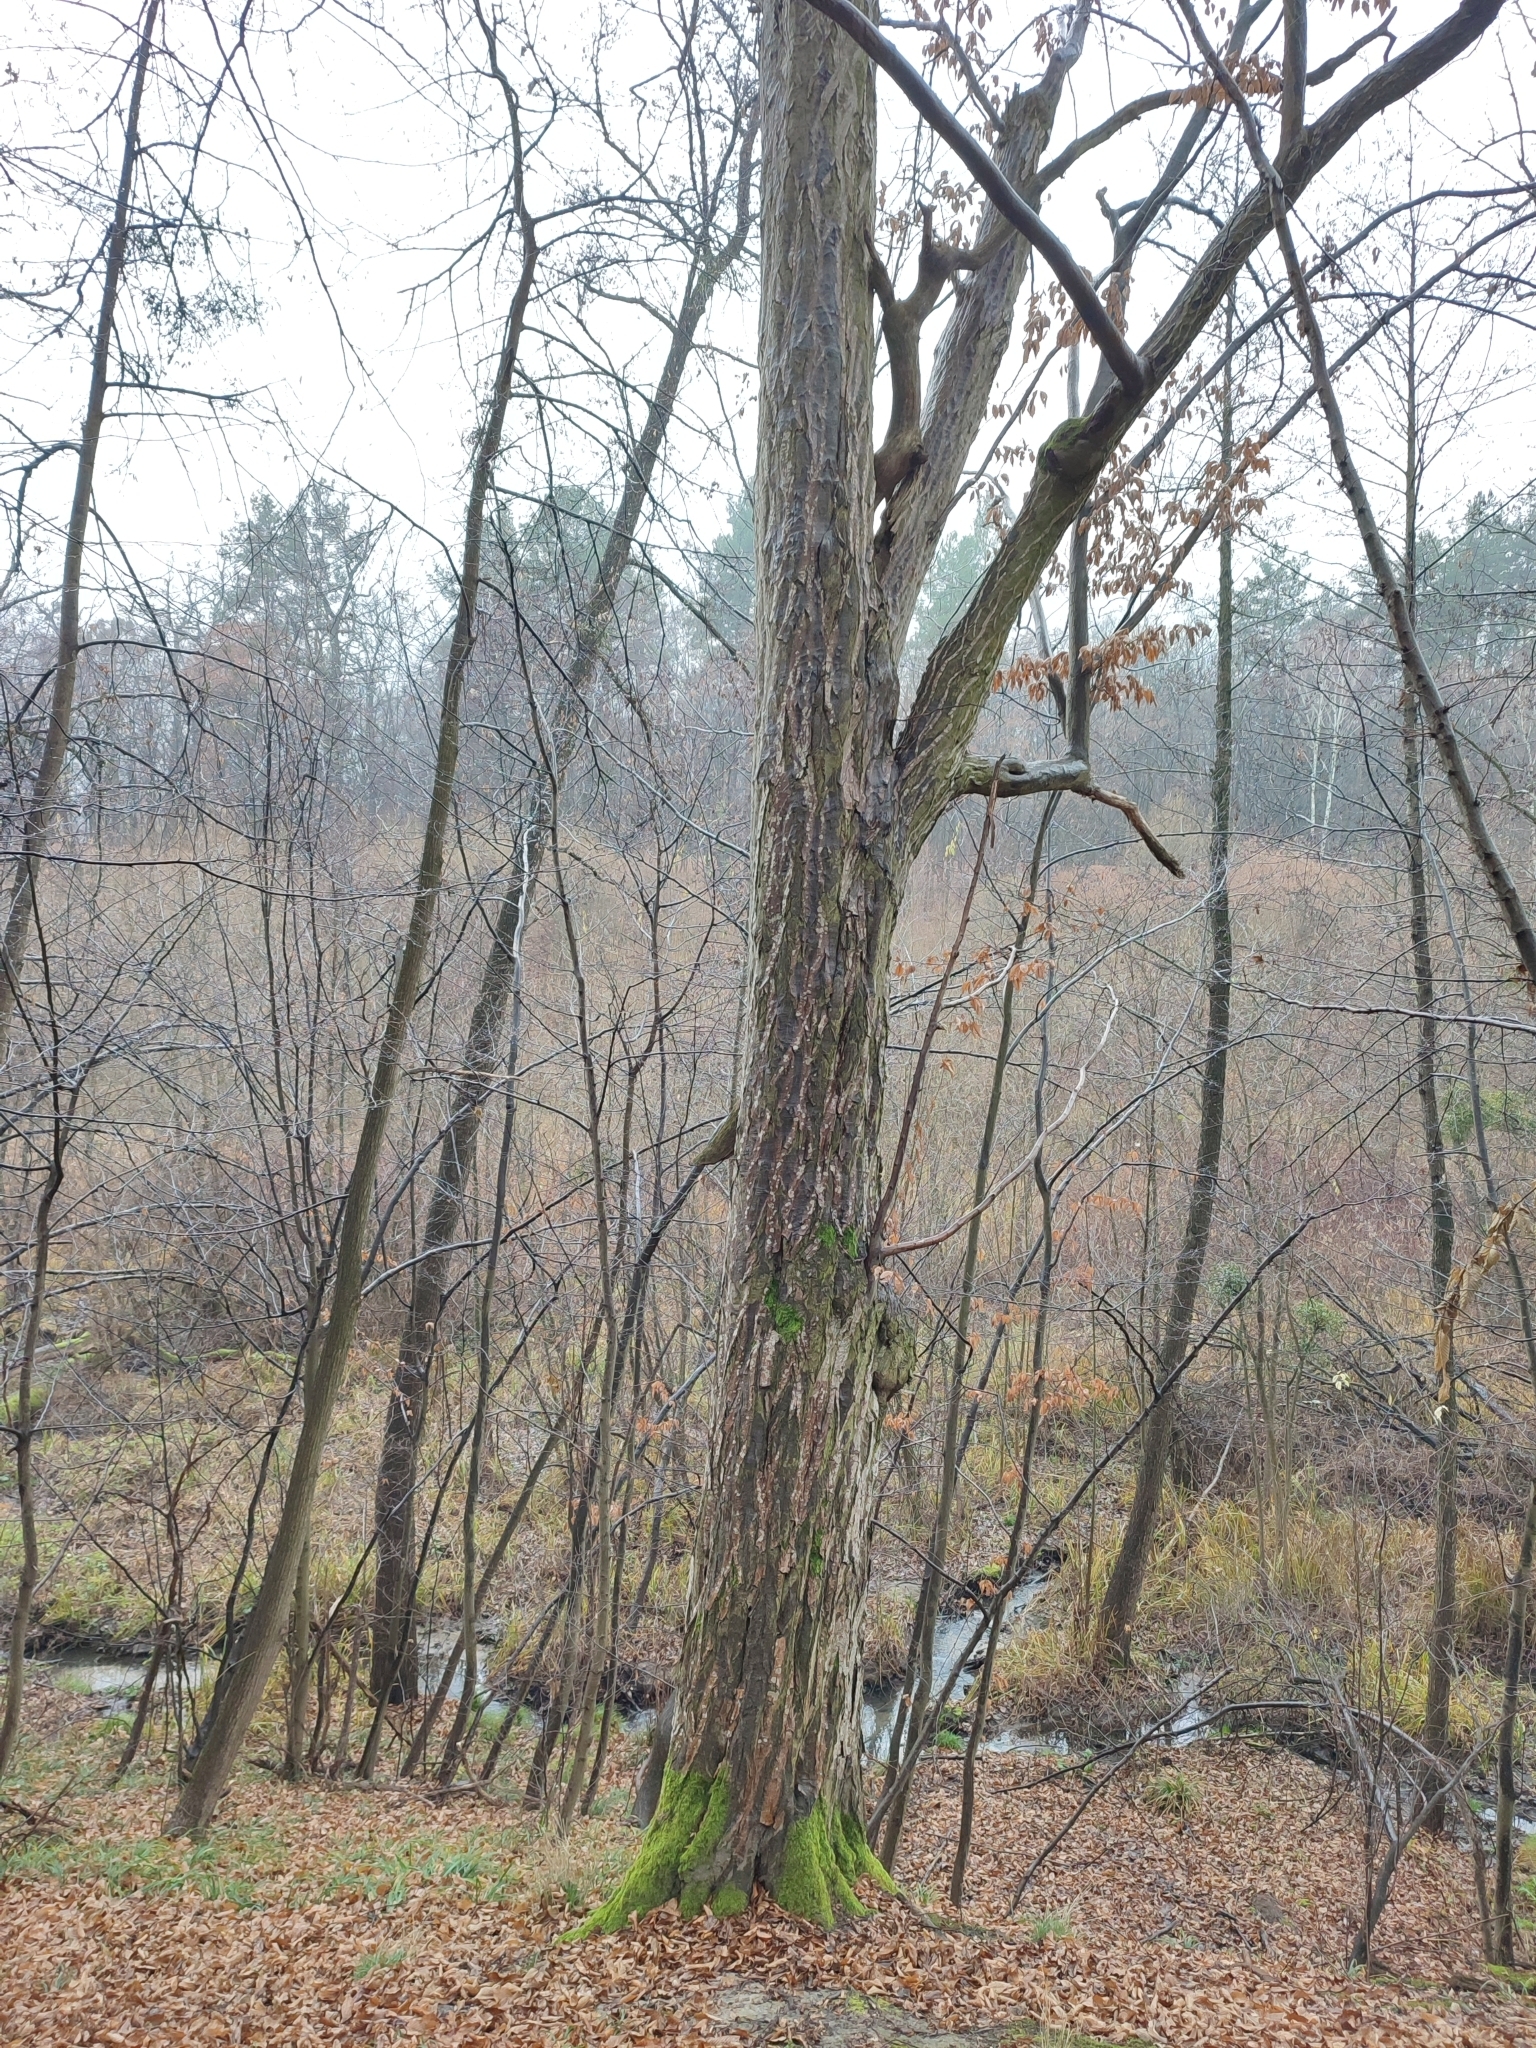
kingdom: Plantae
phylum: Tracheophyta
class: Magnoliopsida
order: Fagales
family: Betulaceae
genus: Carpinus
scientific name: Carpinus betulus
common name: Hornbeam
